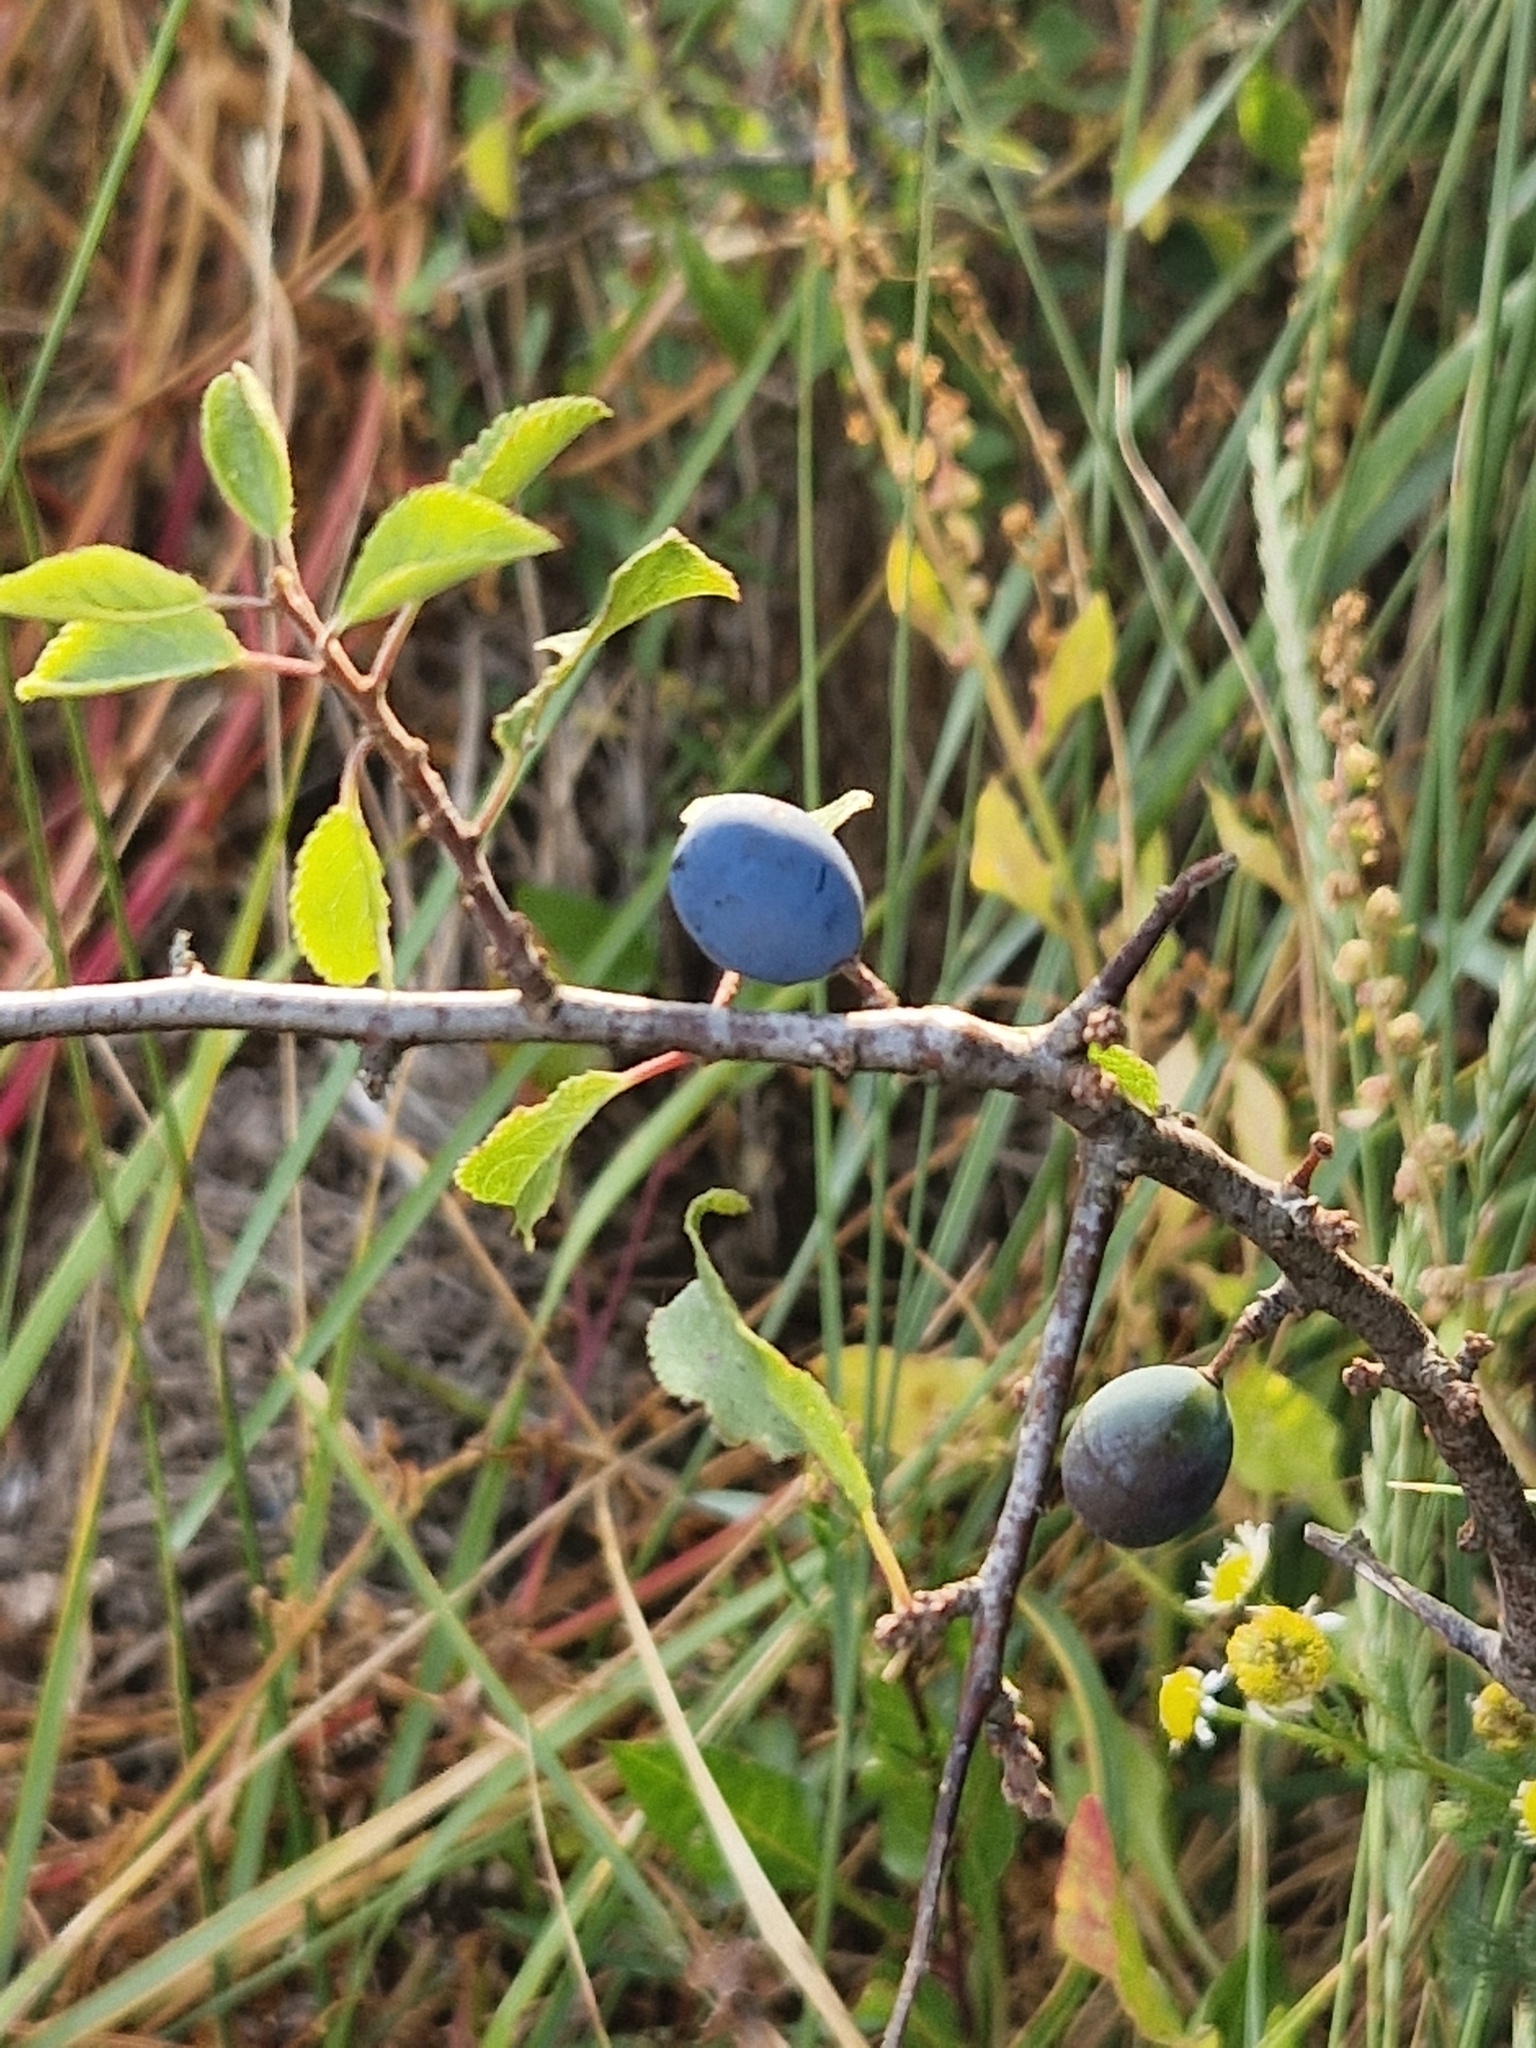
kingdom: Plantae
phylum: Tracheophyta
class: Magnoliopsida
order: Rosales
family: Rosaceae
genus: Prunus
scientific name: Prunus spinosa
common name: Blackthorn
